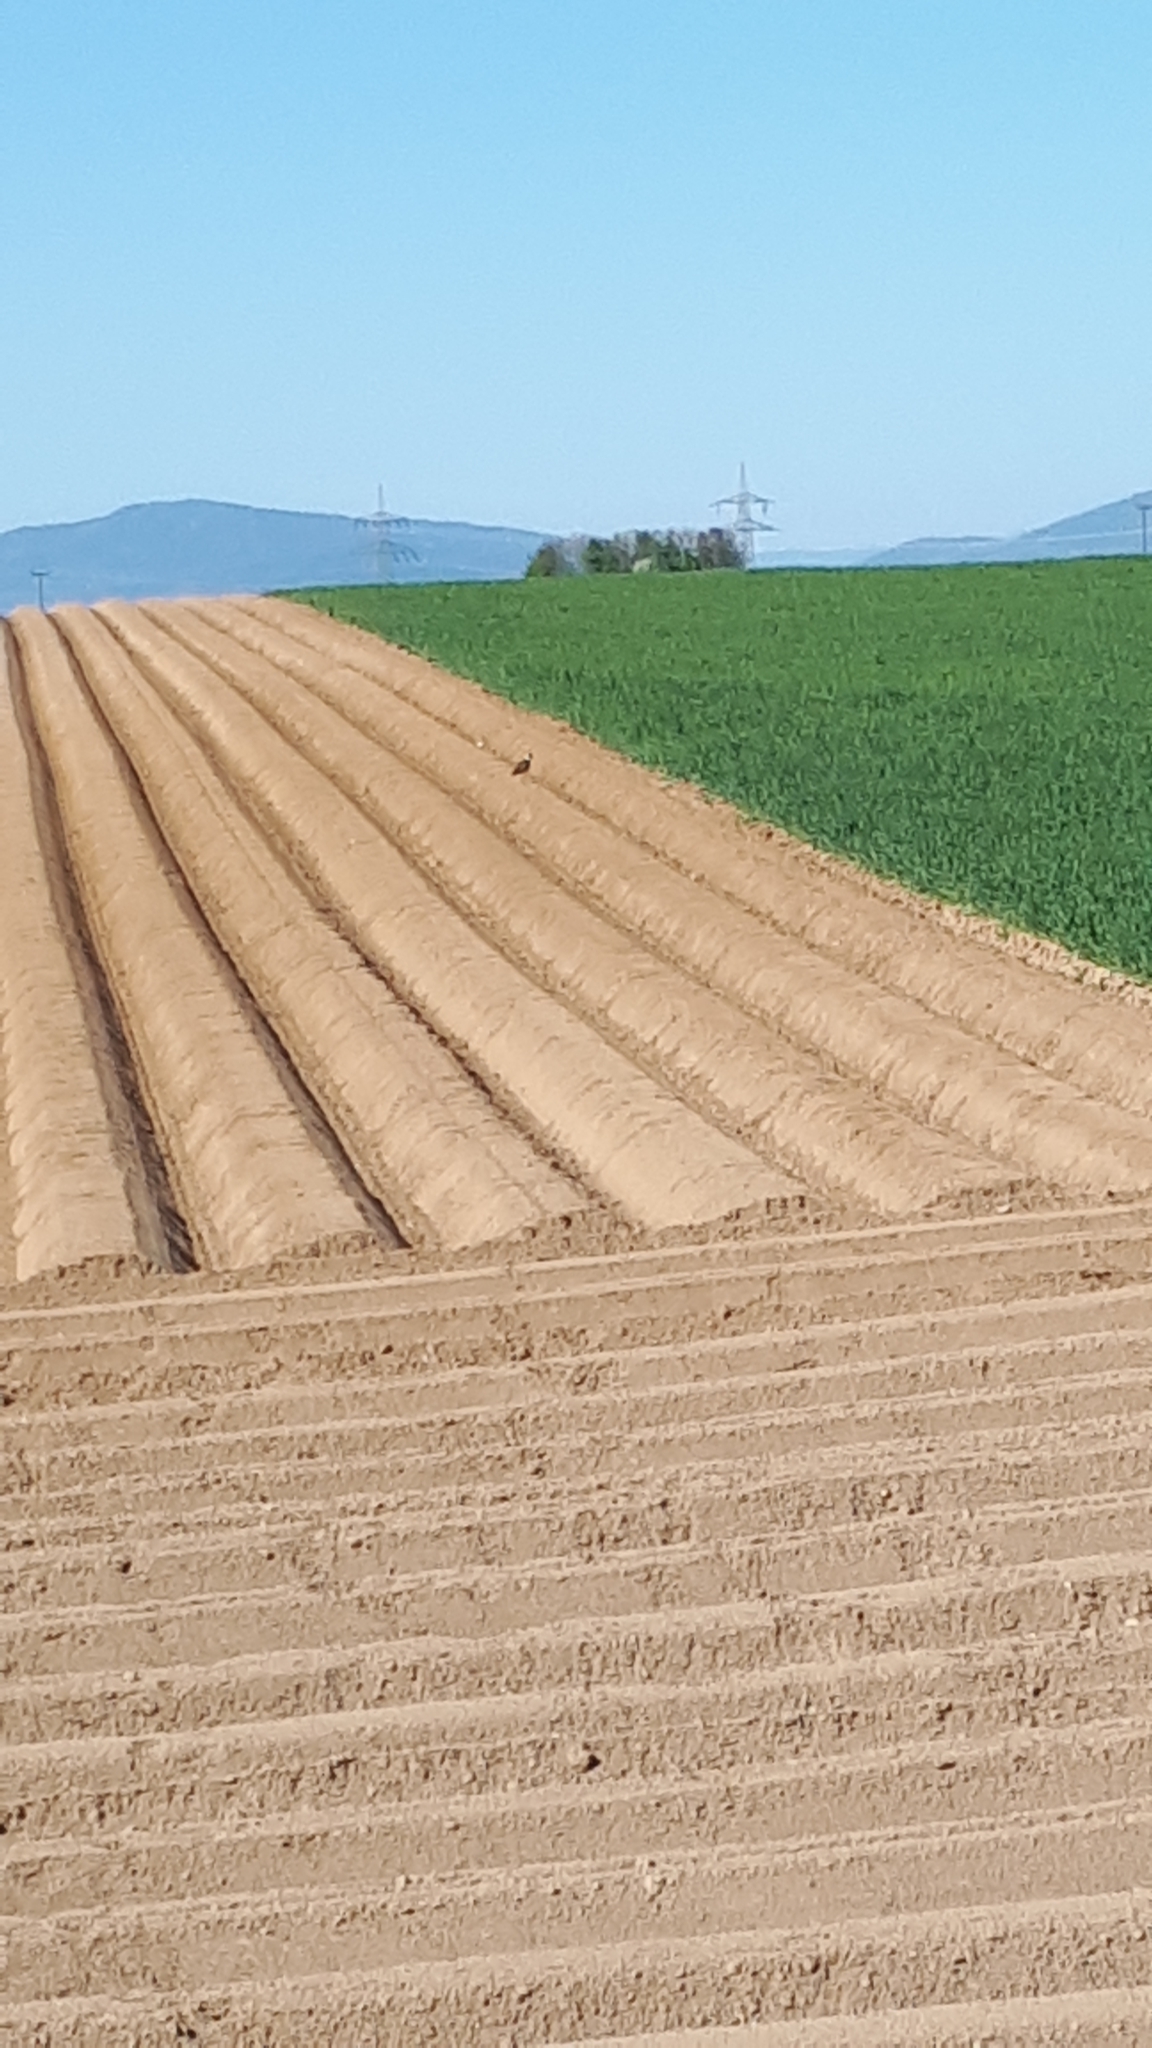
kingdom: Animalia
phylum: Chordata
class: Aves
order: Charadriiformes
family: Charadriidae
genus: Vanellus
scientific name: Vanellus vanellus
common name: Northern lapwing
